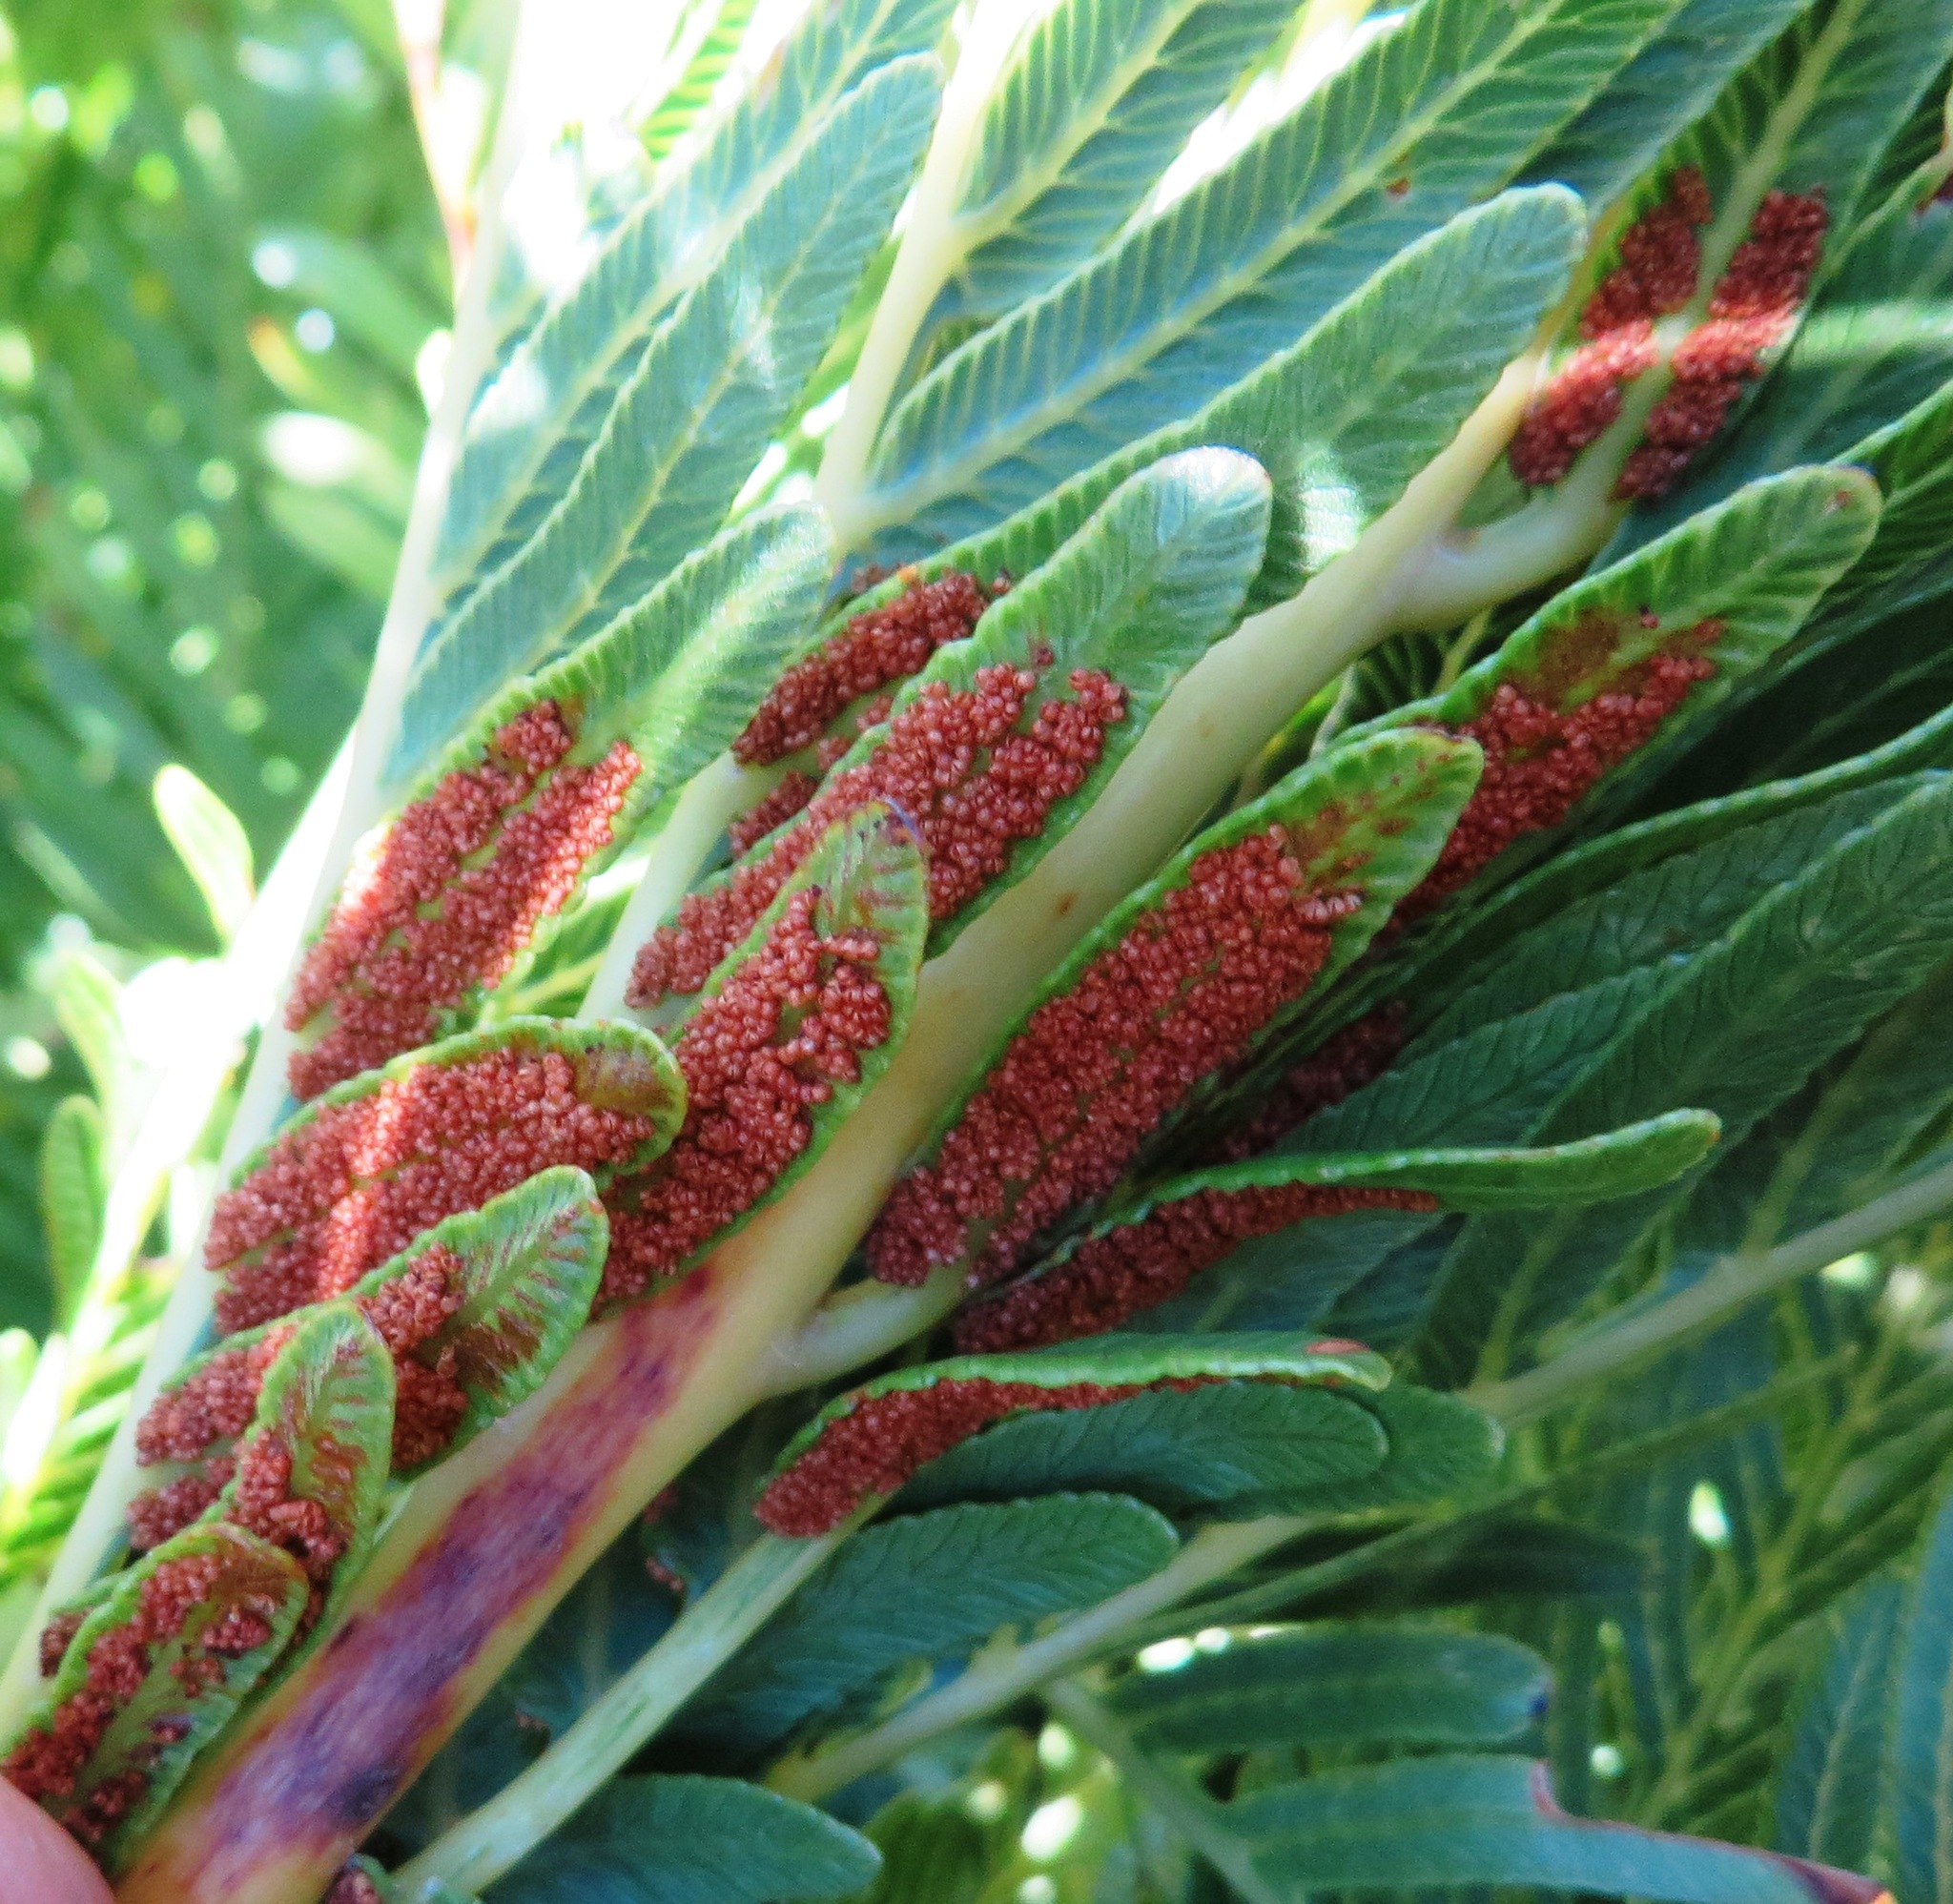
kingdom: Plantae
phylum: Tracheophyta
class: Polypodiopsida
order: Osmundales
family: Osmundaceae
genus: Todea
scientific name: Todea barbara
